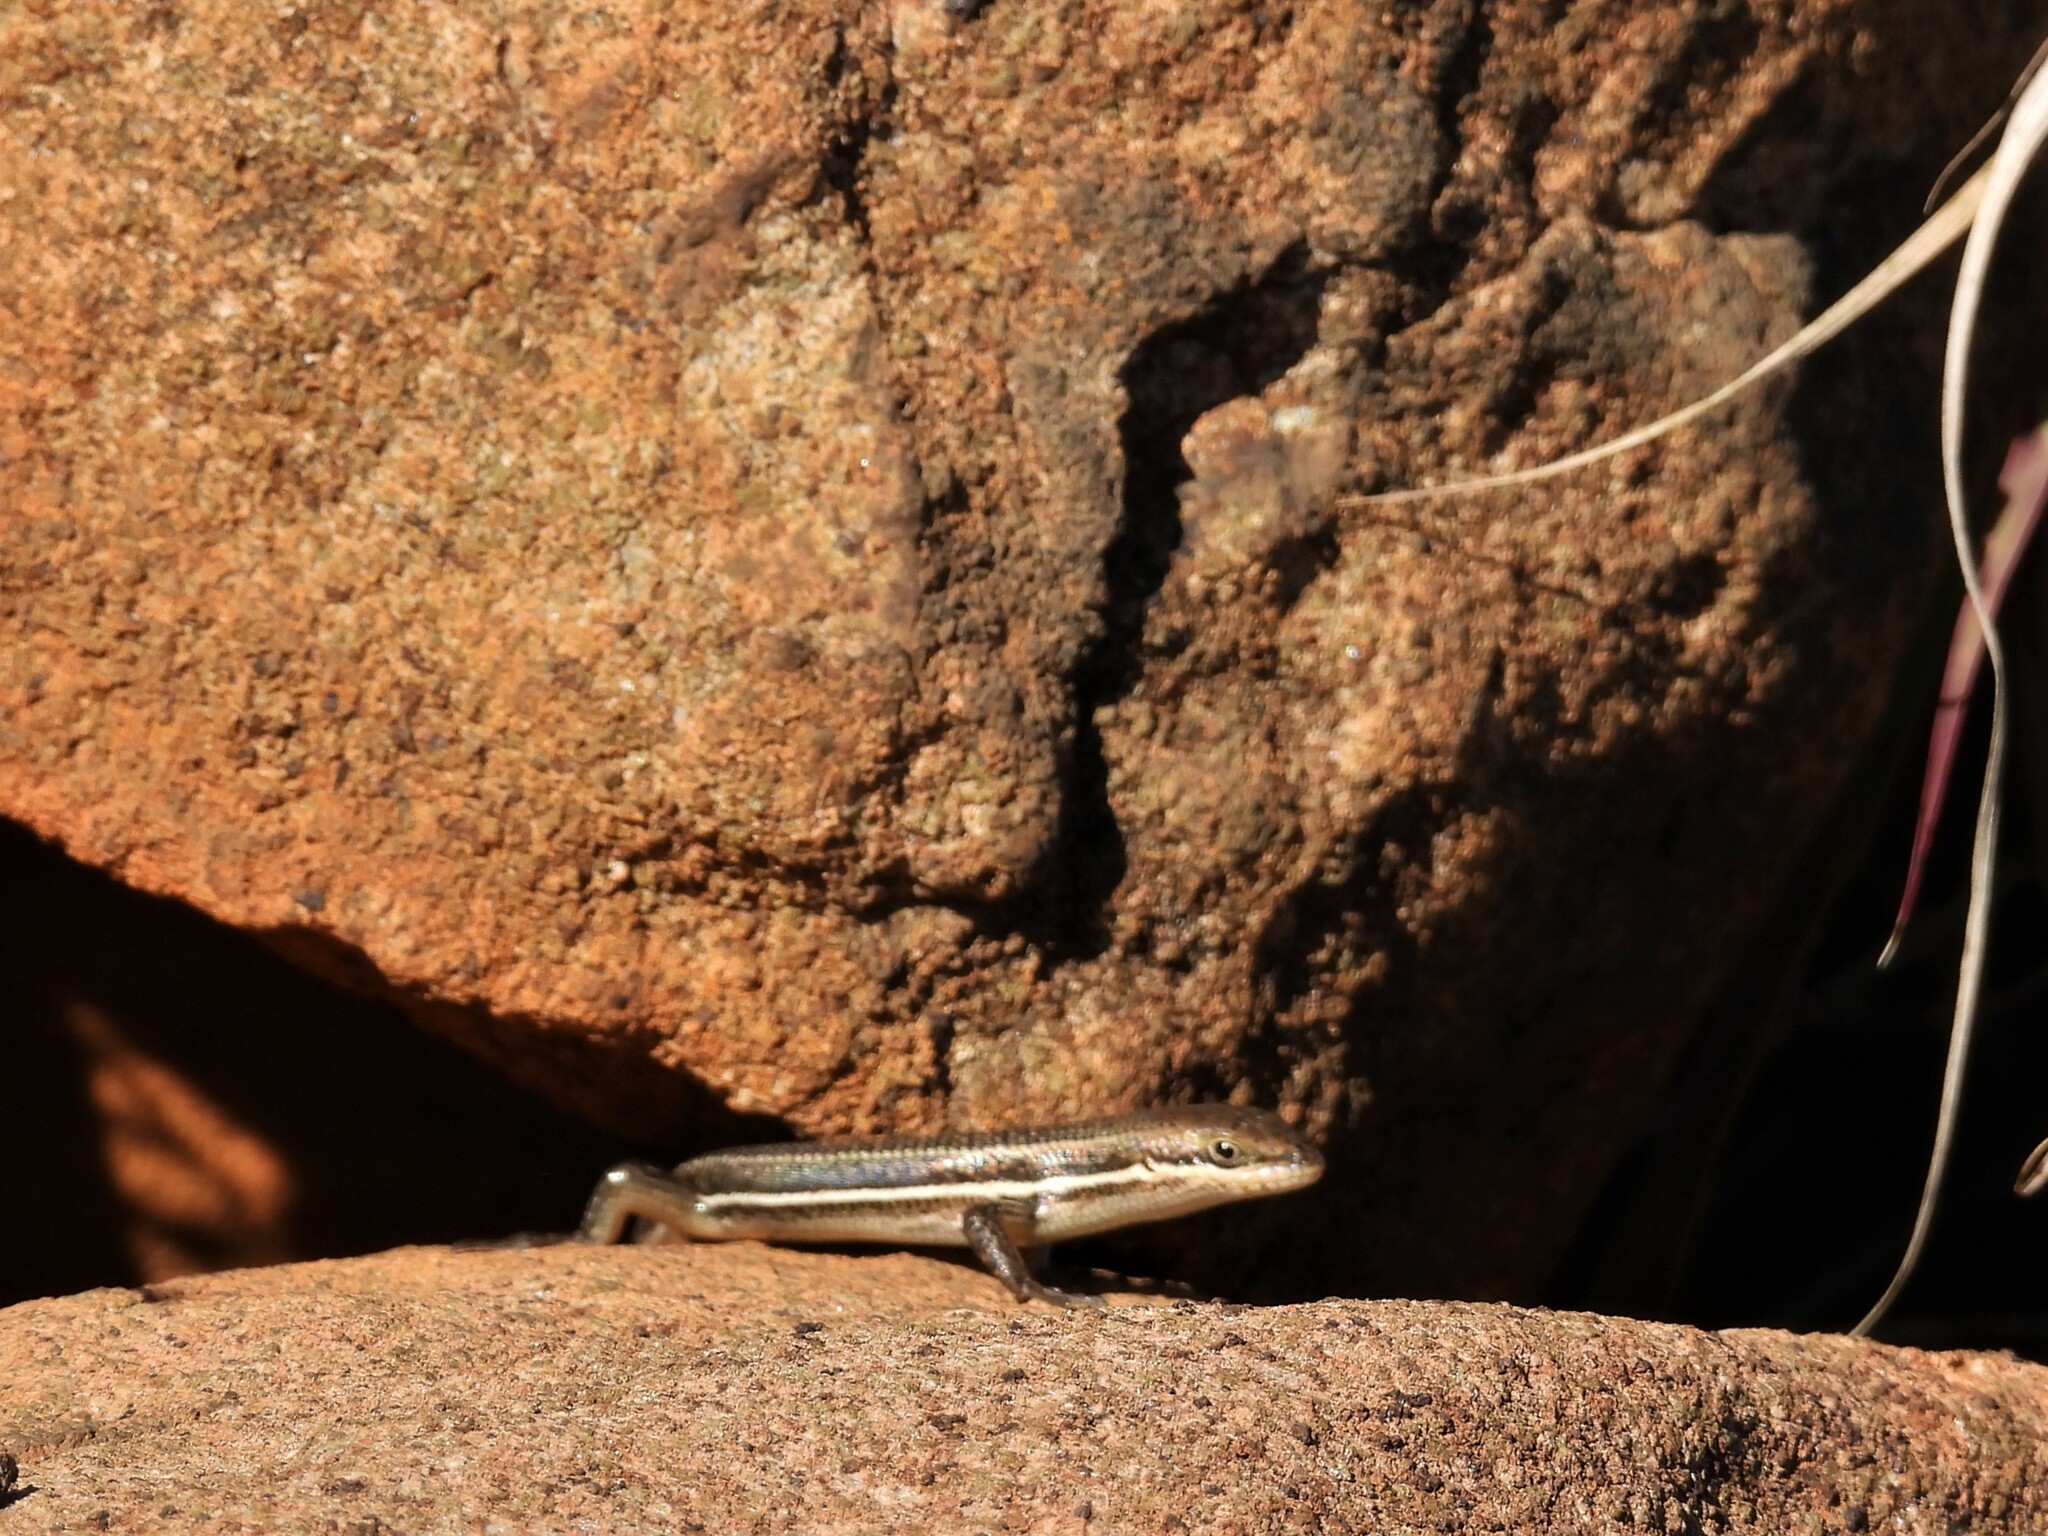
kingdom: Animalia
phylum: Chordata
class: Squamata
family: Scincidae
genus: Trachylepis
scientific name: Trachylepis varia
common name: Eastern variable skink
